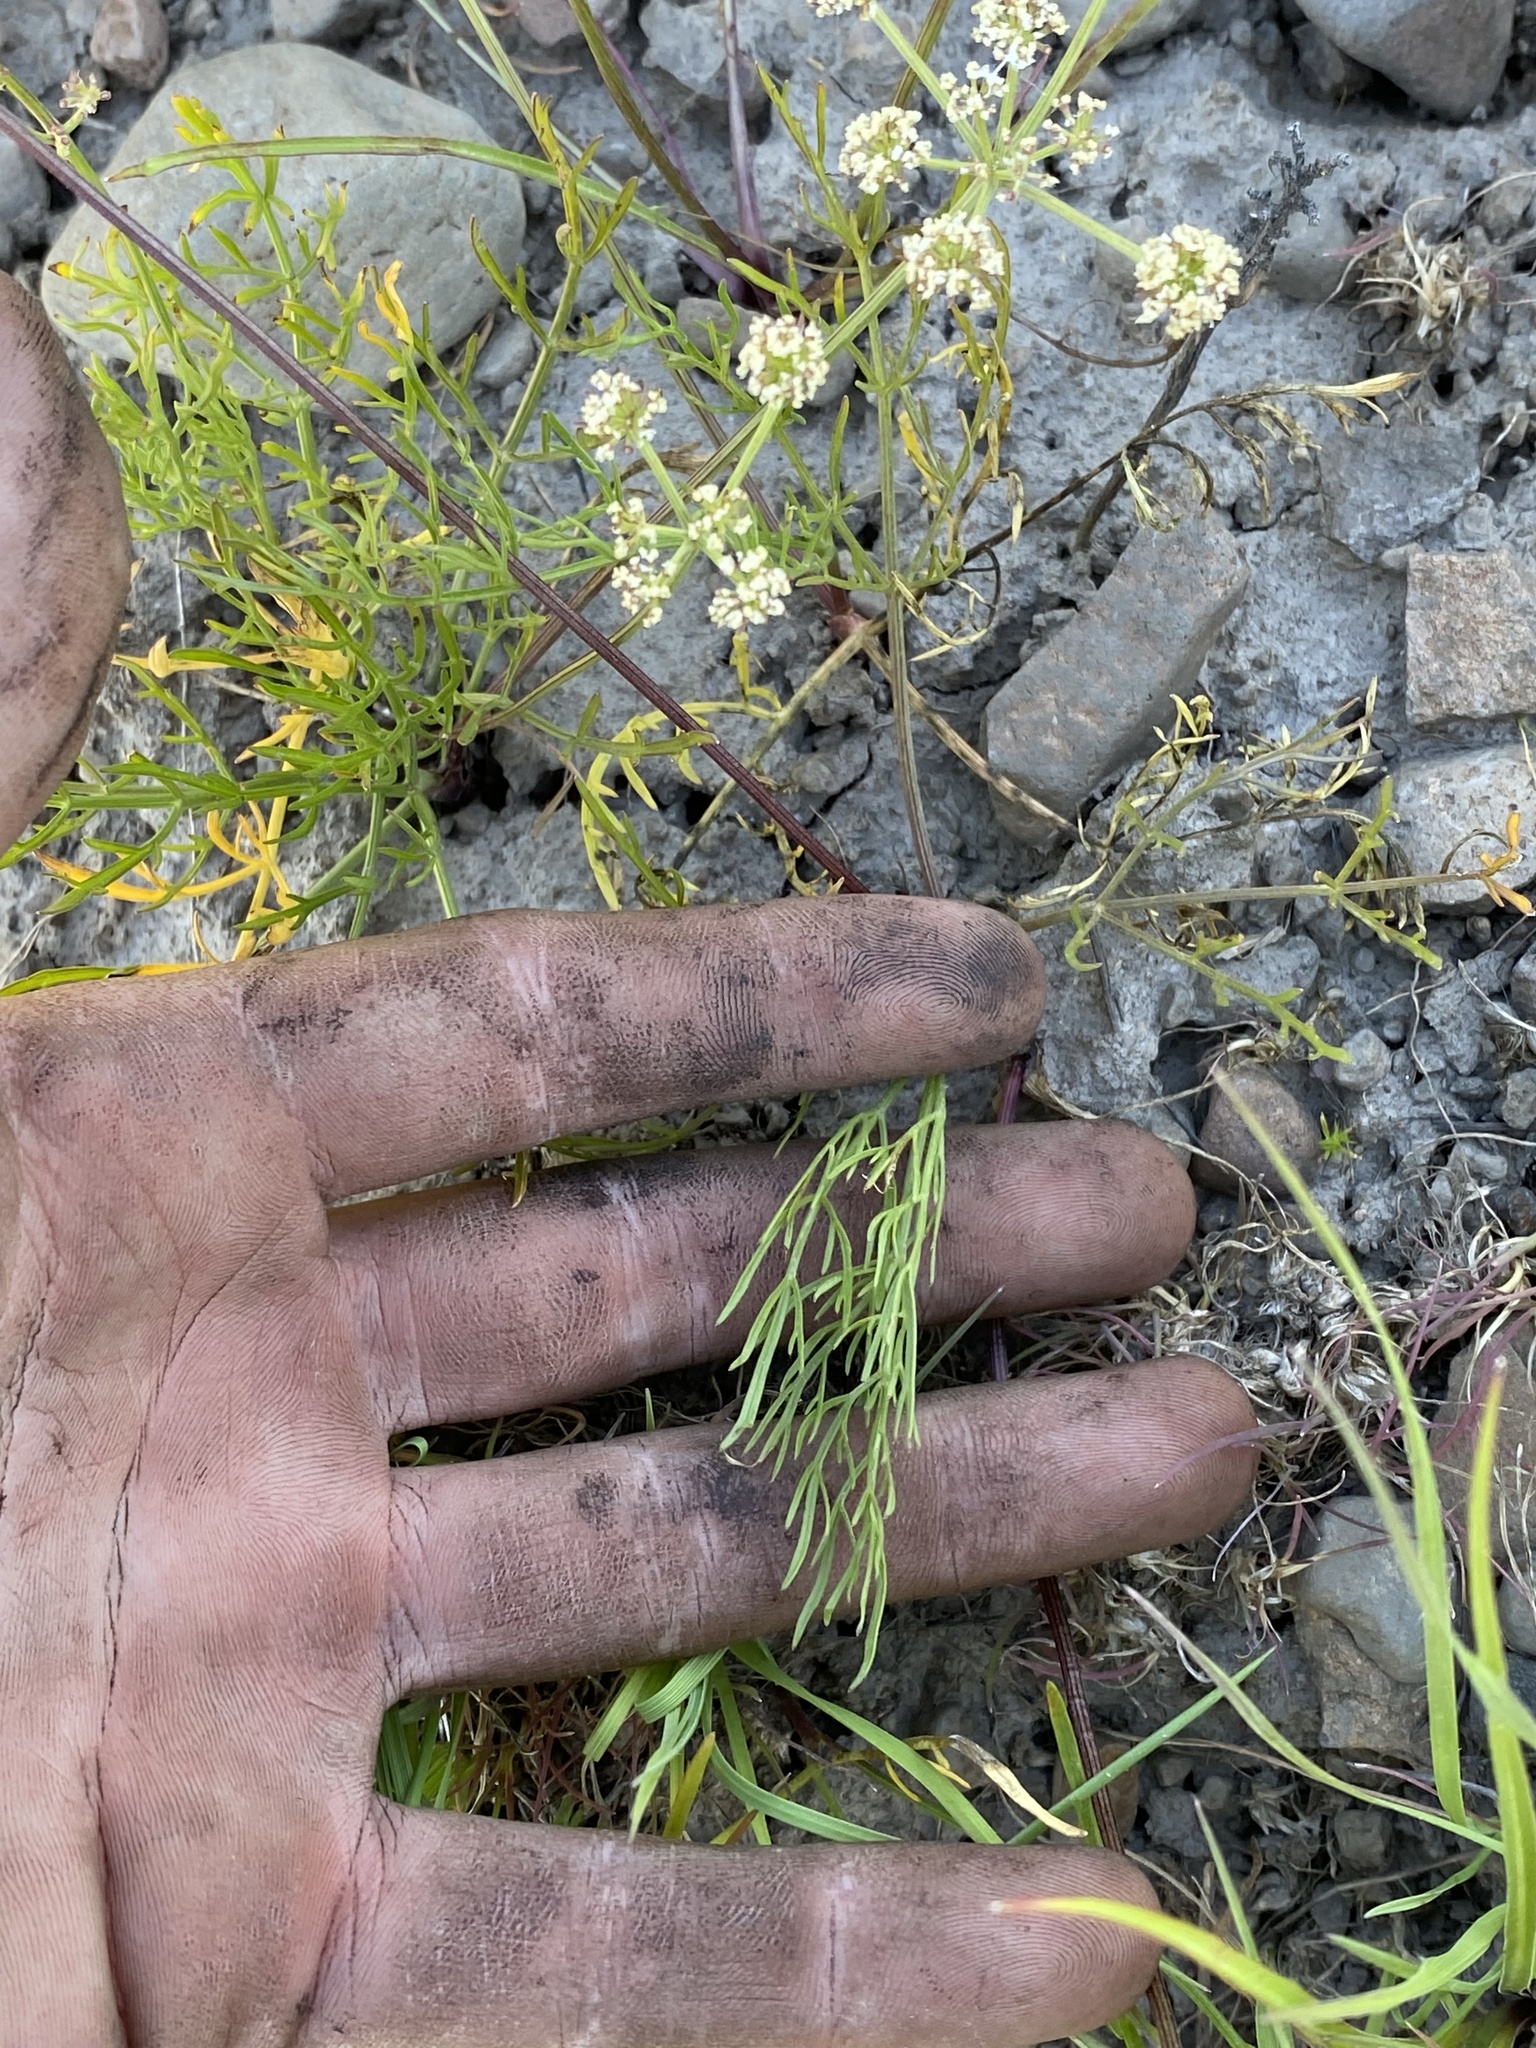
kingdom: Plantae
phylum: Tracheophyta
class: Magnoliopsida
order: Apiales
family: Apiaceae
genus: Lomatium
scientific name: Lomatium bicolor
